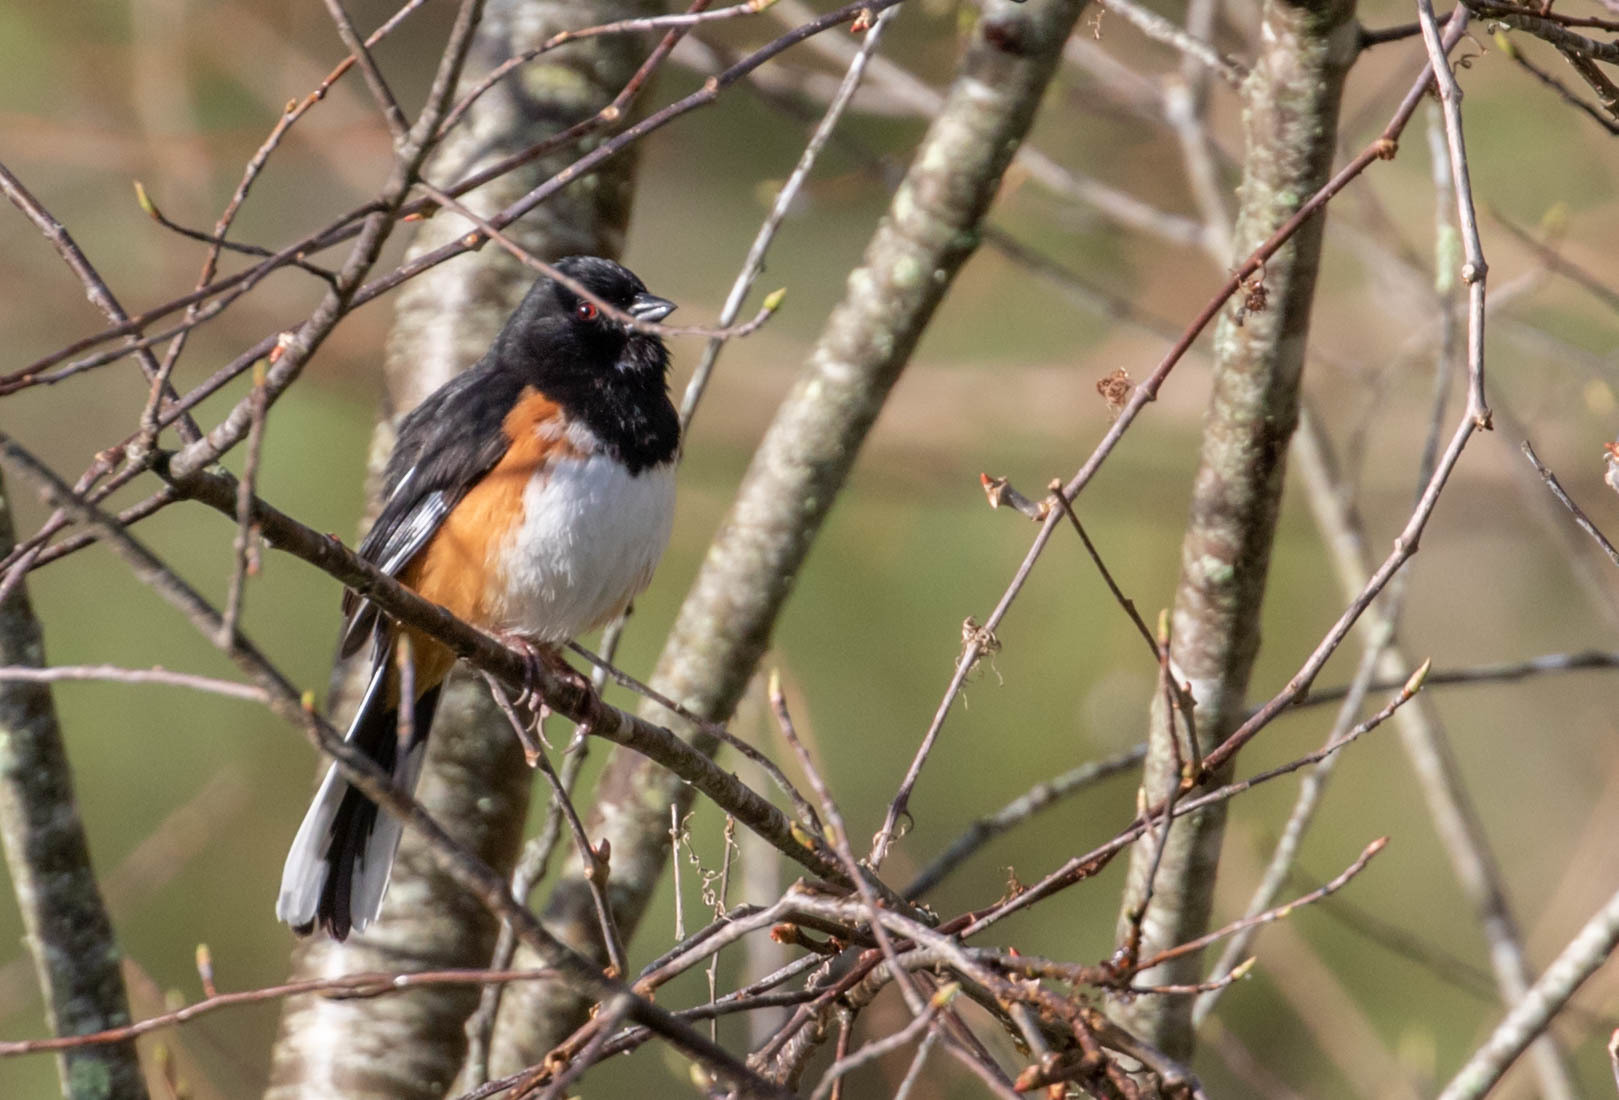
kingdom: Animalia
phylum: Chordata
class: Aves
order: Passeriformes
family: Passerellidae
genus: Pipilo
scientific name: Pipilo erythrophthalmus
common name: Eastern towhee
